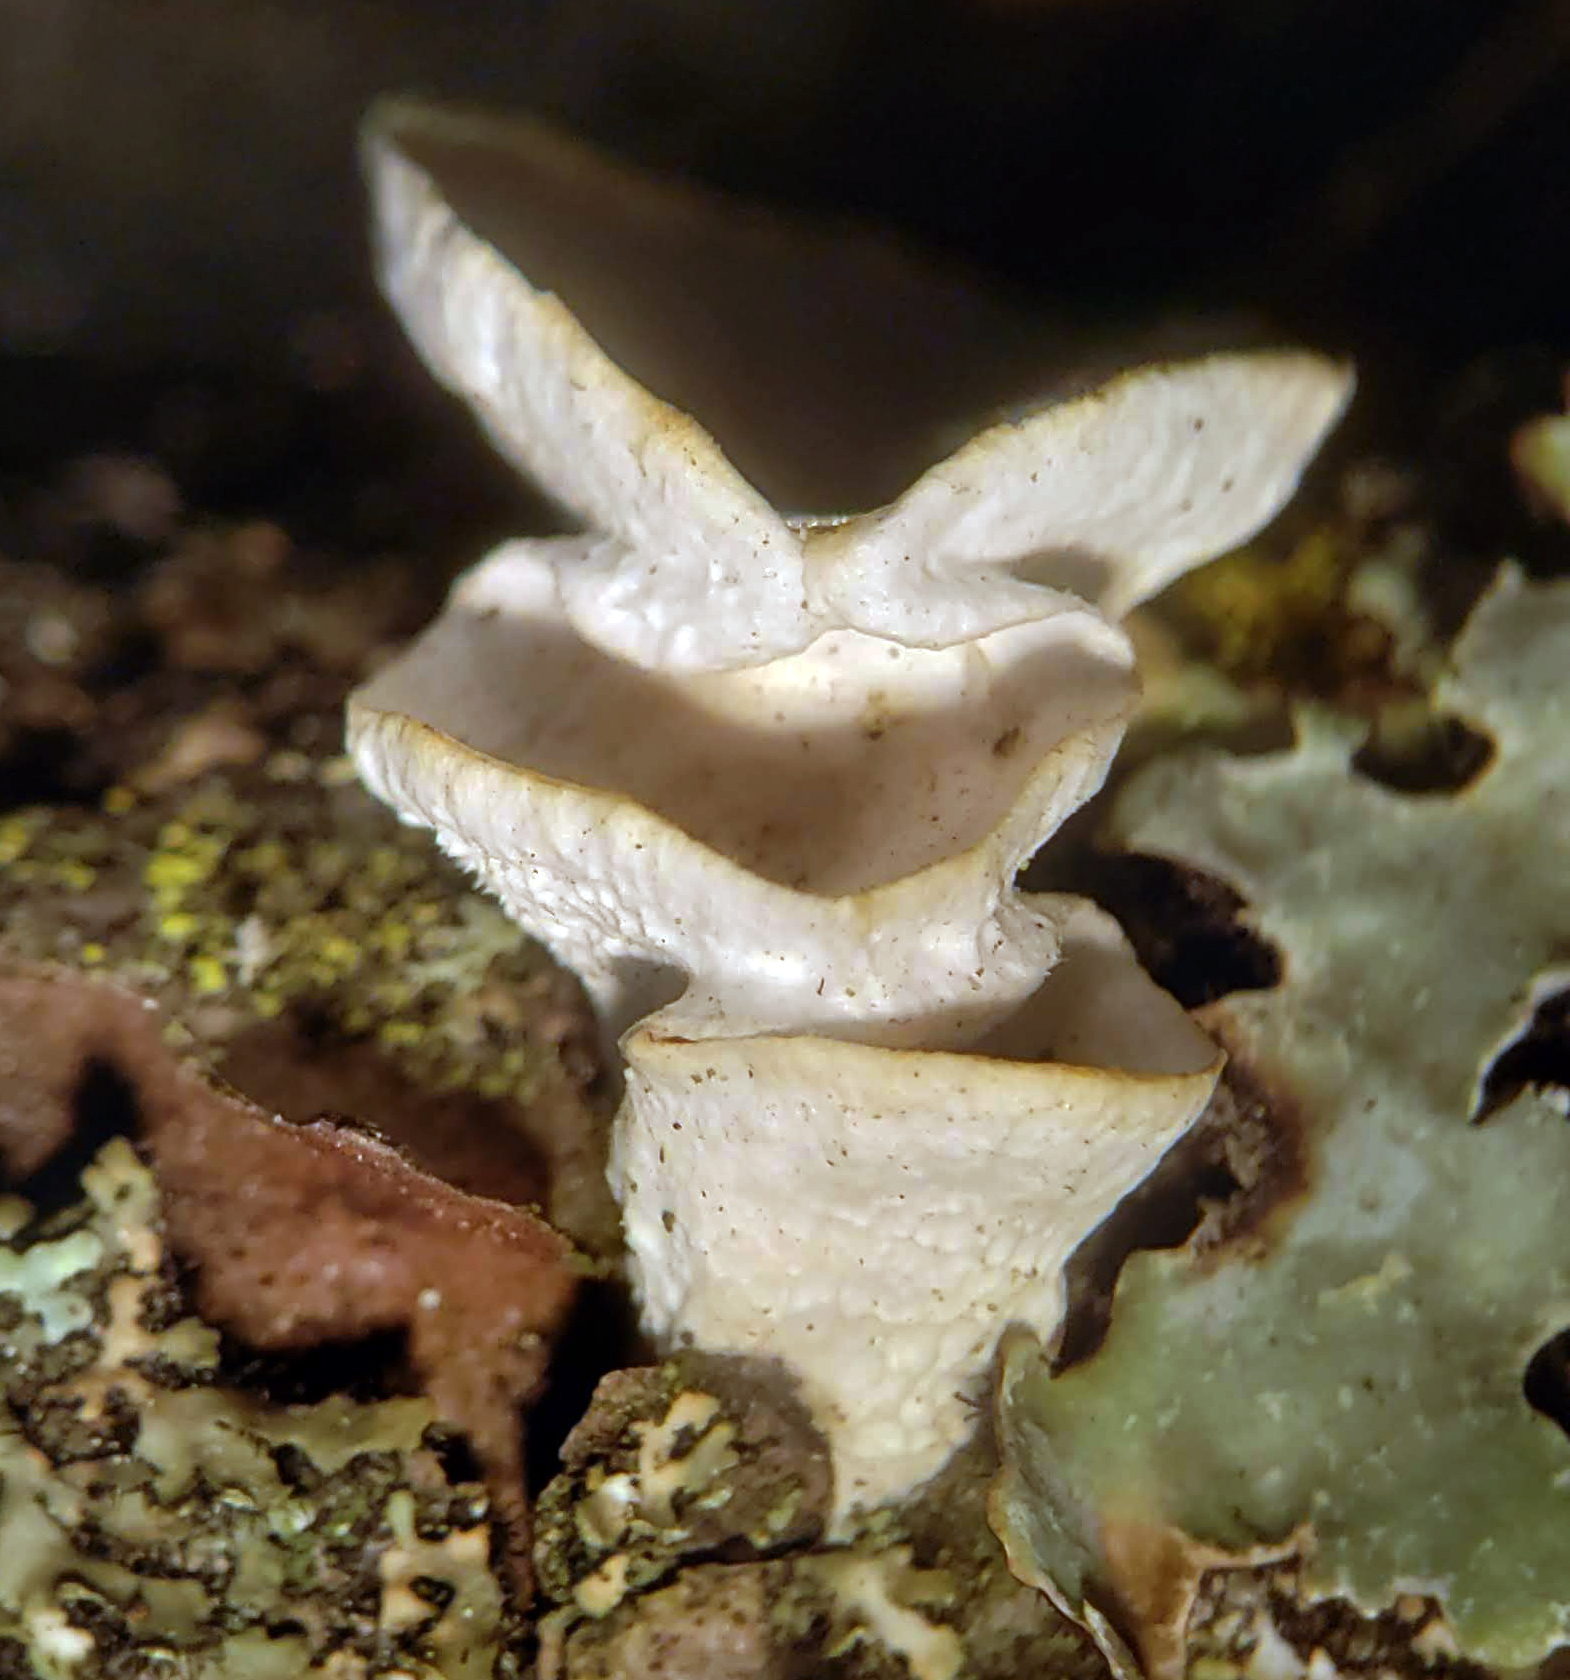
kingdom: Fungi
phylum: Basidiomycota
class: Agaricomycetes
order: Polyporales
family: Polyporaceae
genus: Poronidulus
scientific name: Poronidulus conchifer
